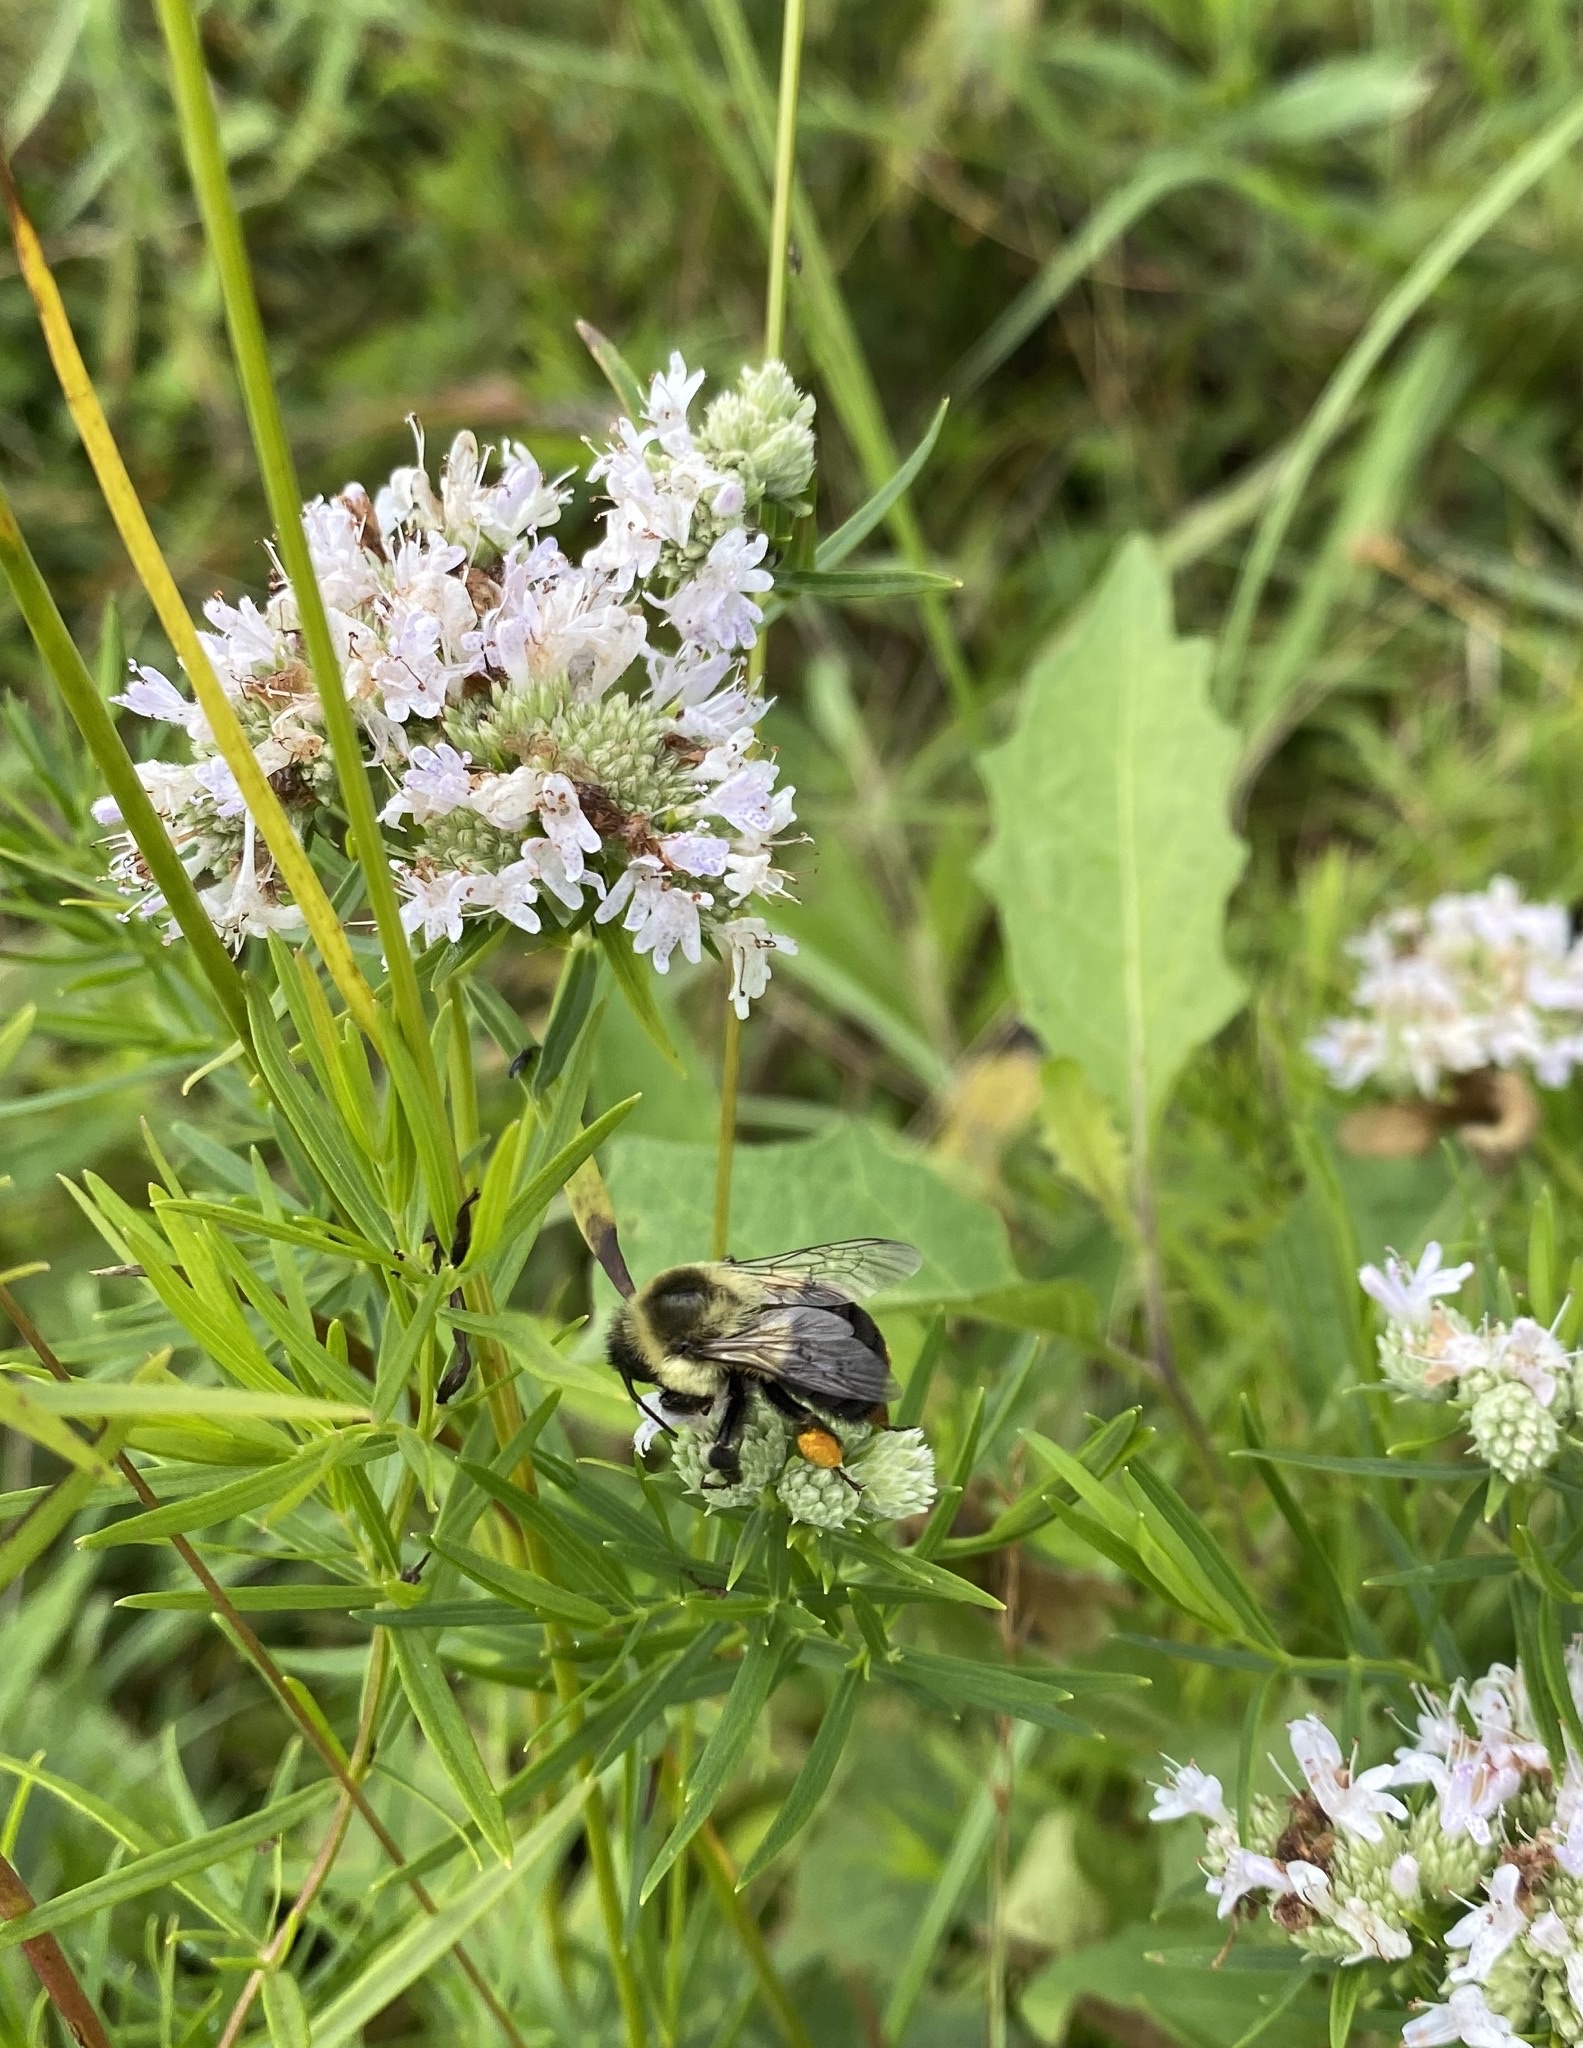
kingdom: Animalia
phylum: Arthropoda
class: Insecta
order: Hymenoptera
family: Apidae
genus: Bombus
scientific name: Bombus impatiens
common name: Common eastern bumble bee
